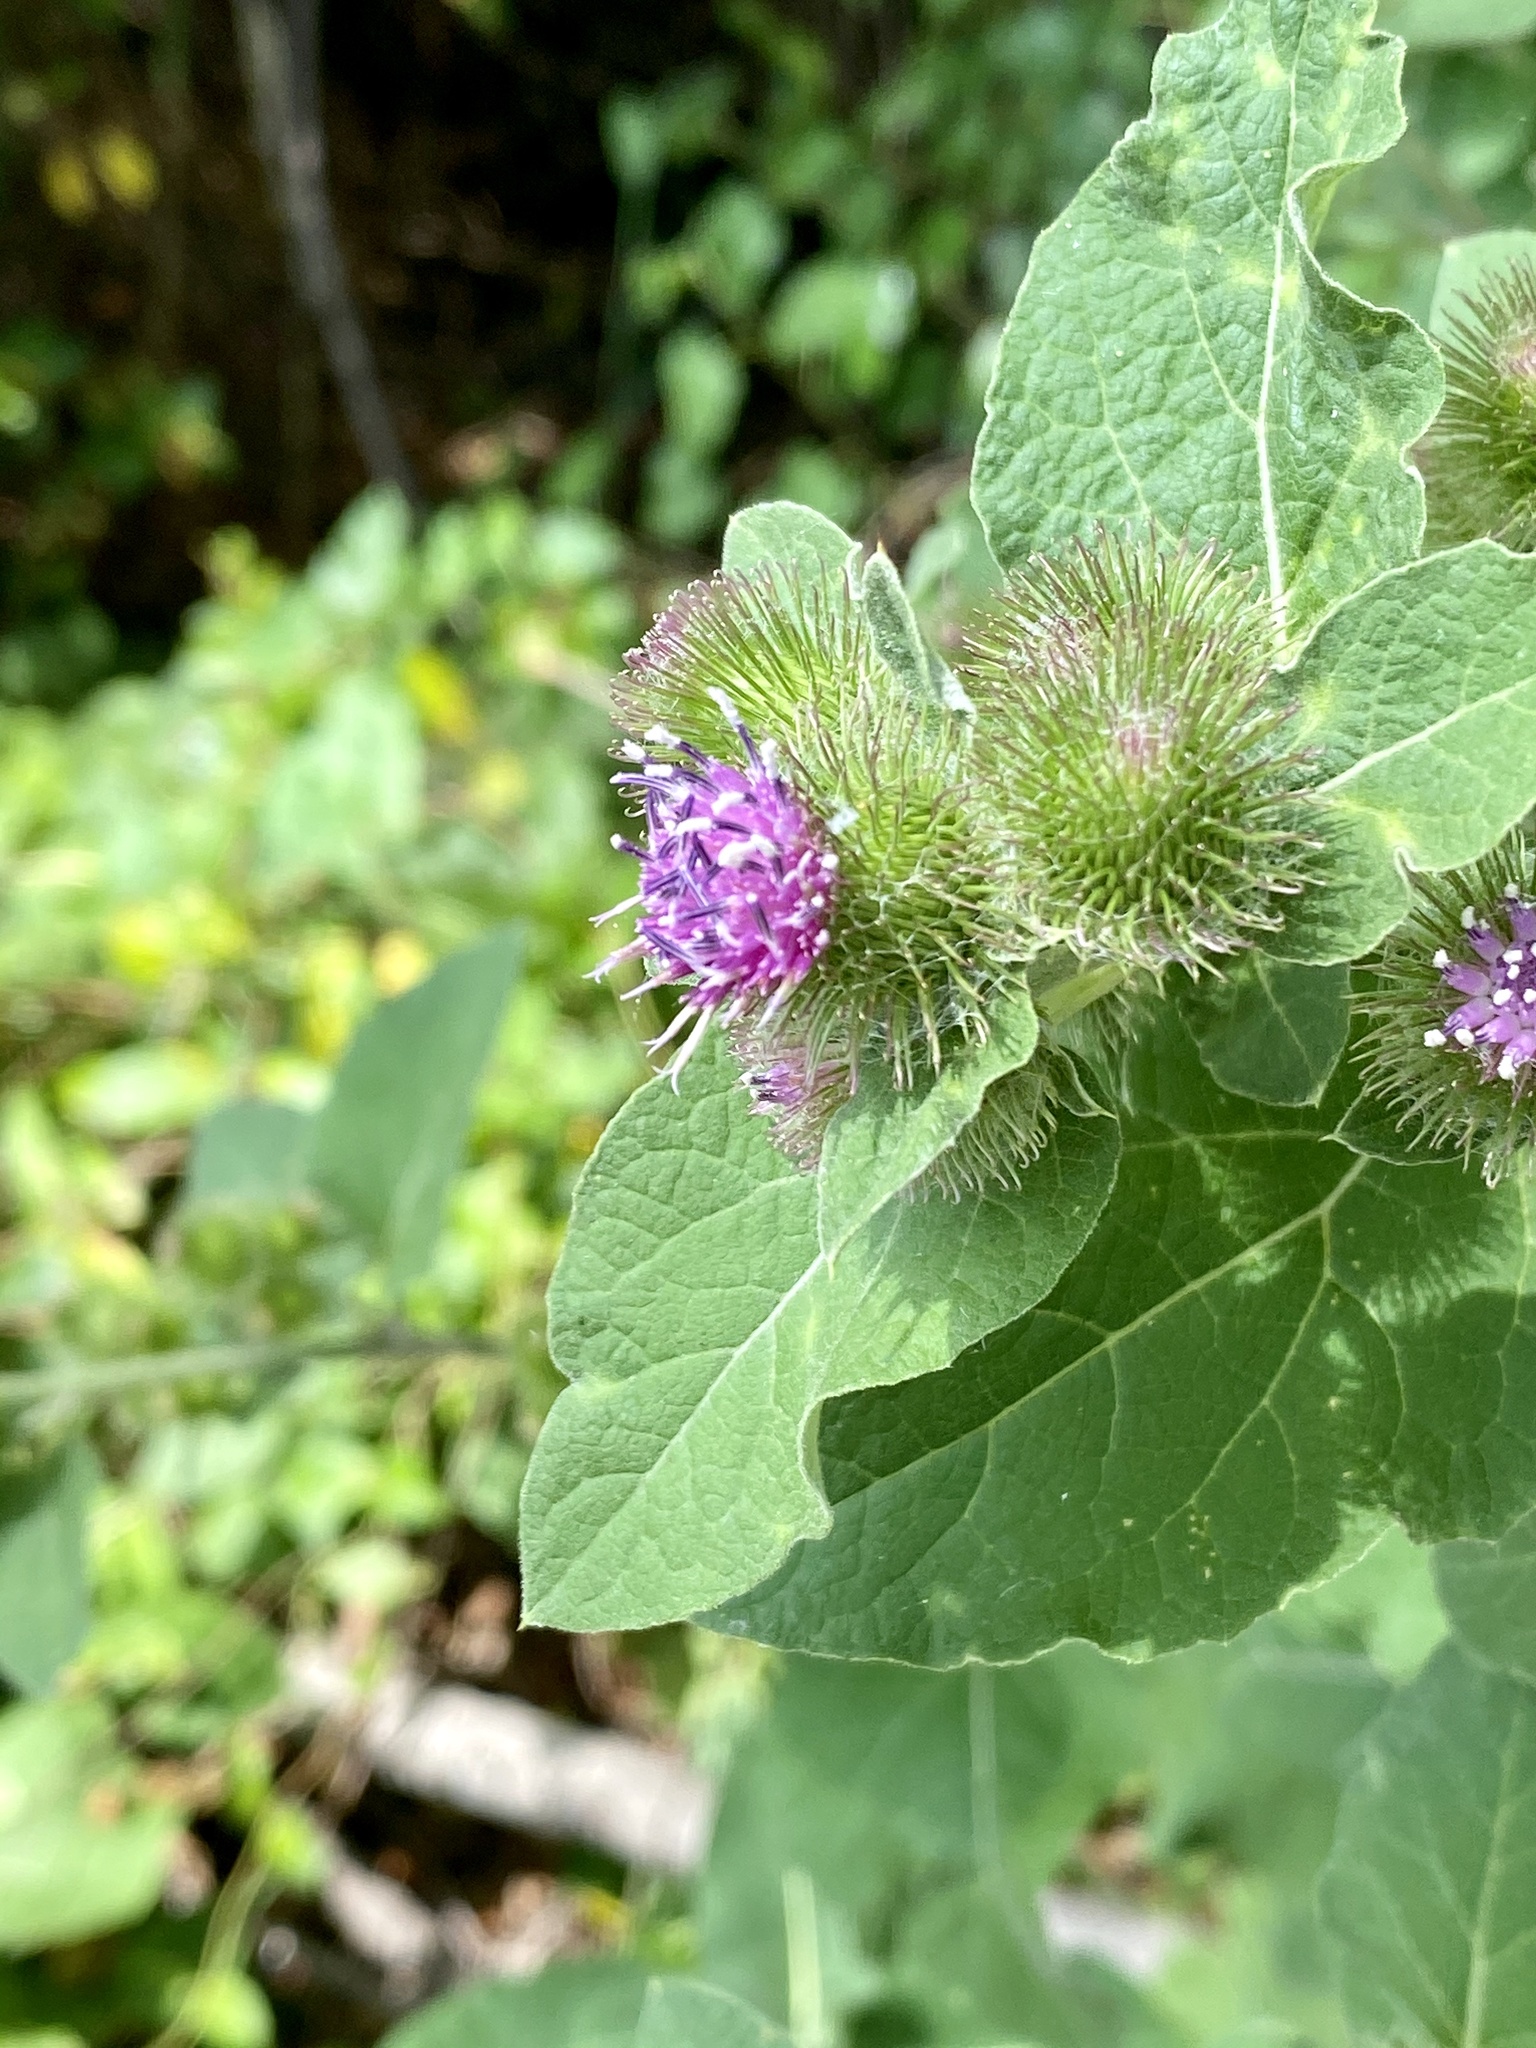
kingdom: Plantae
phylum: Tracheophyta
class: Magnoliopsida
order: Asterales
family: Asteraceae
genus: Arctium
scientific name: Arctium minus
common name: Lesser burdock
